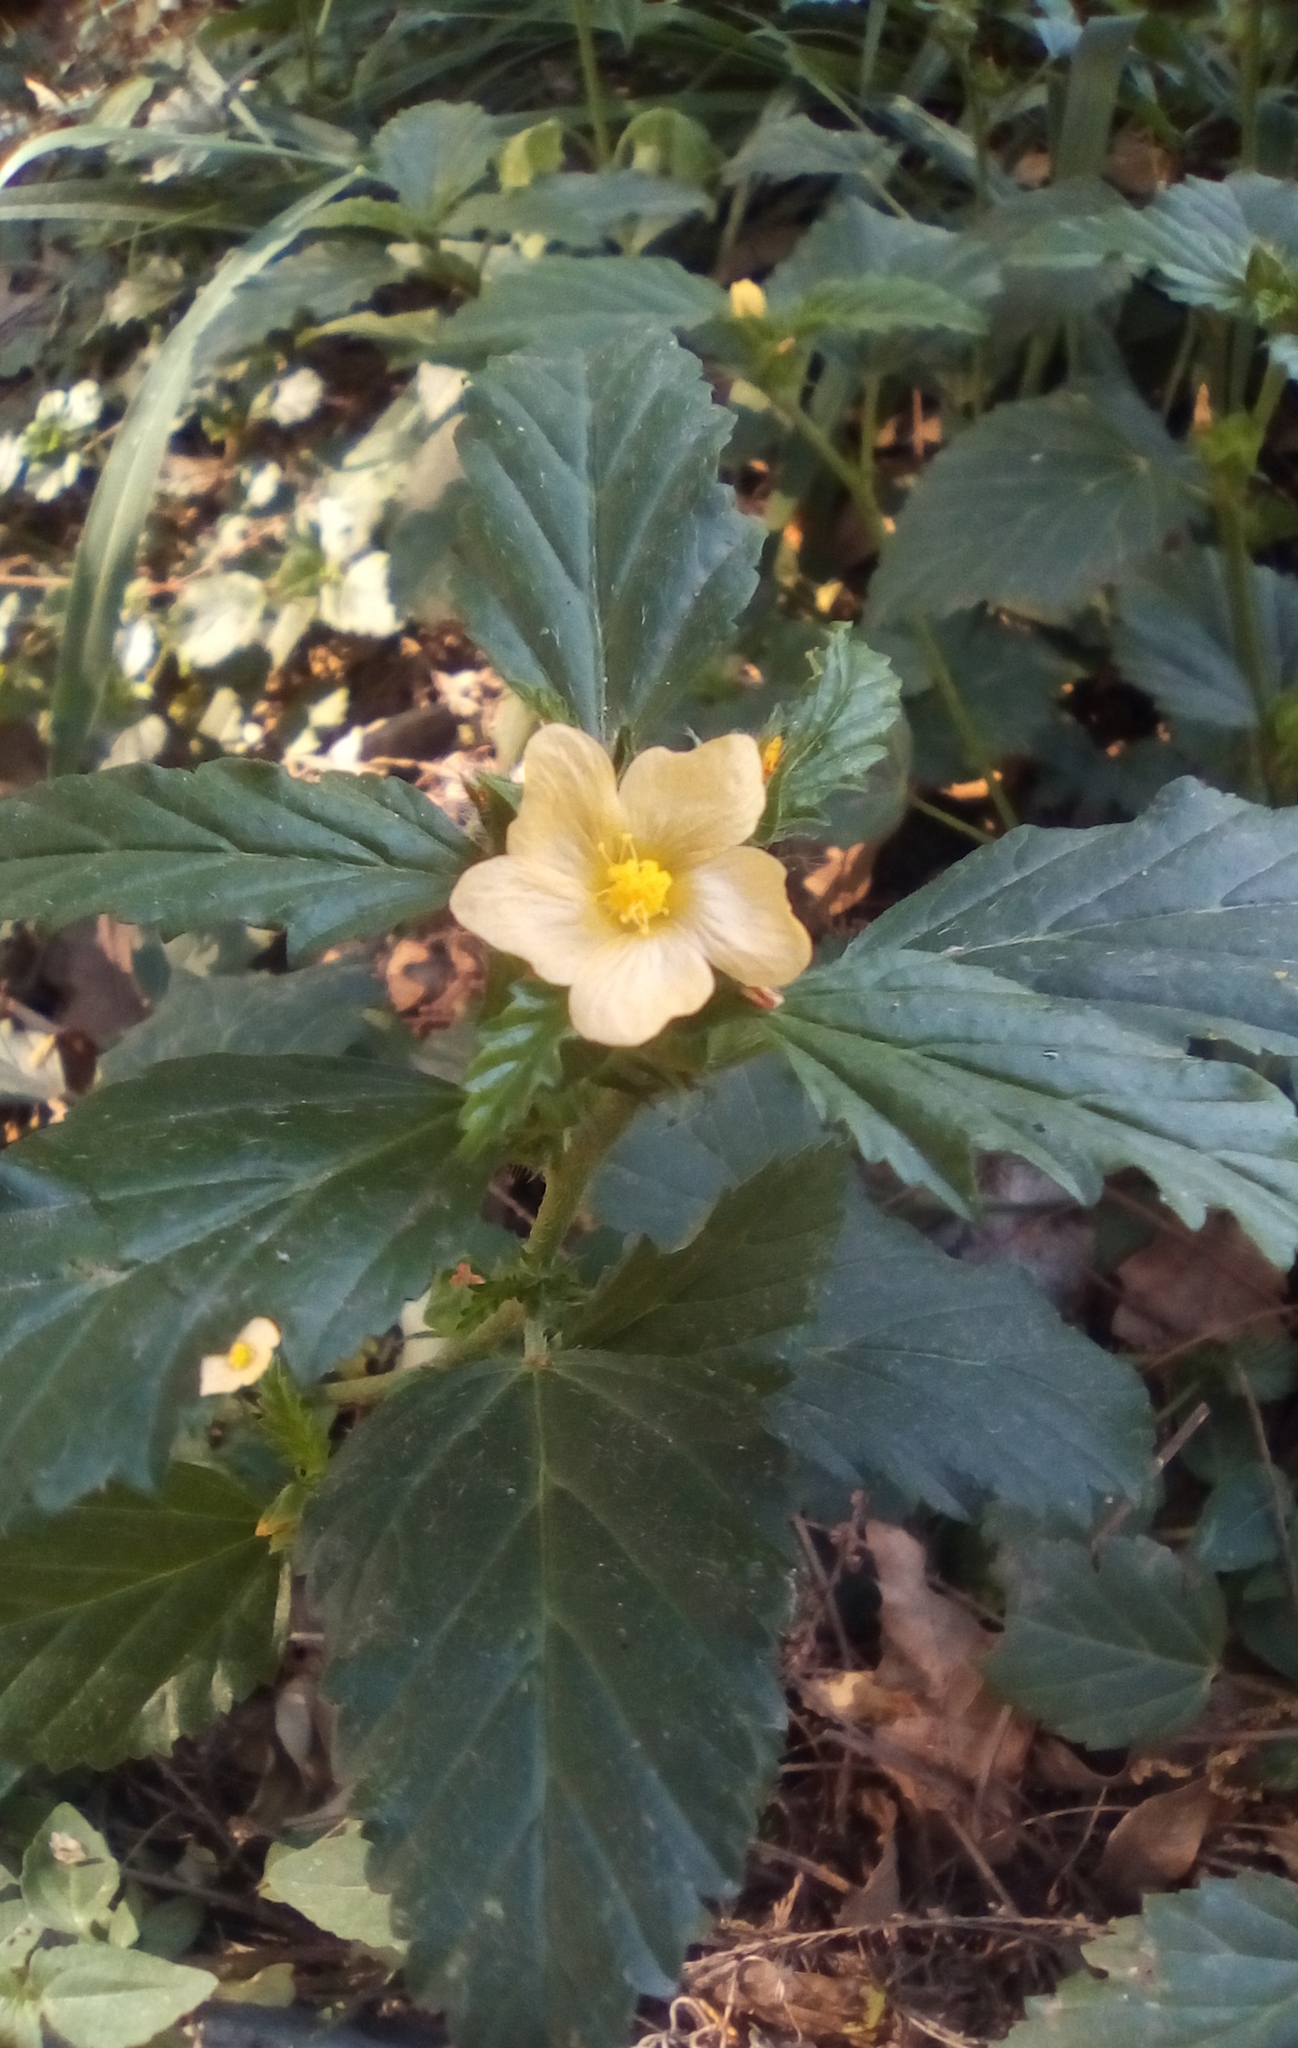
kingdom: Plantae
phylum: Tracheophyta
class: Magnoliopsida
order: Malvales
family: Malvaceae
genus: Malvastrum
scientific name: Malvastrum coromandelianum
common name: Threelobe false mallow
